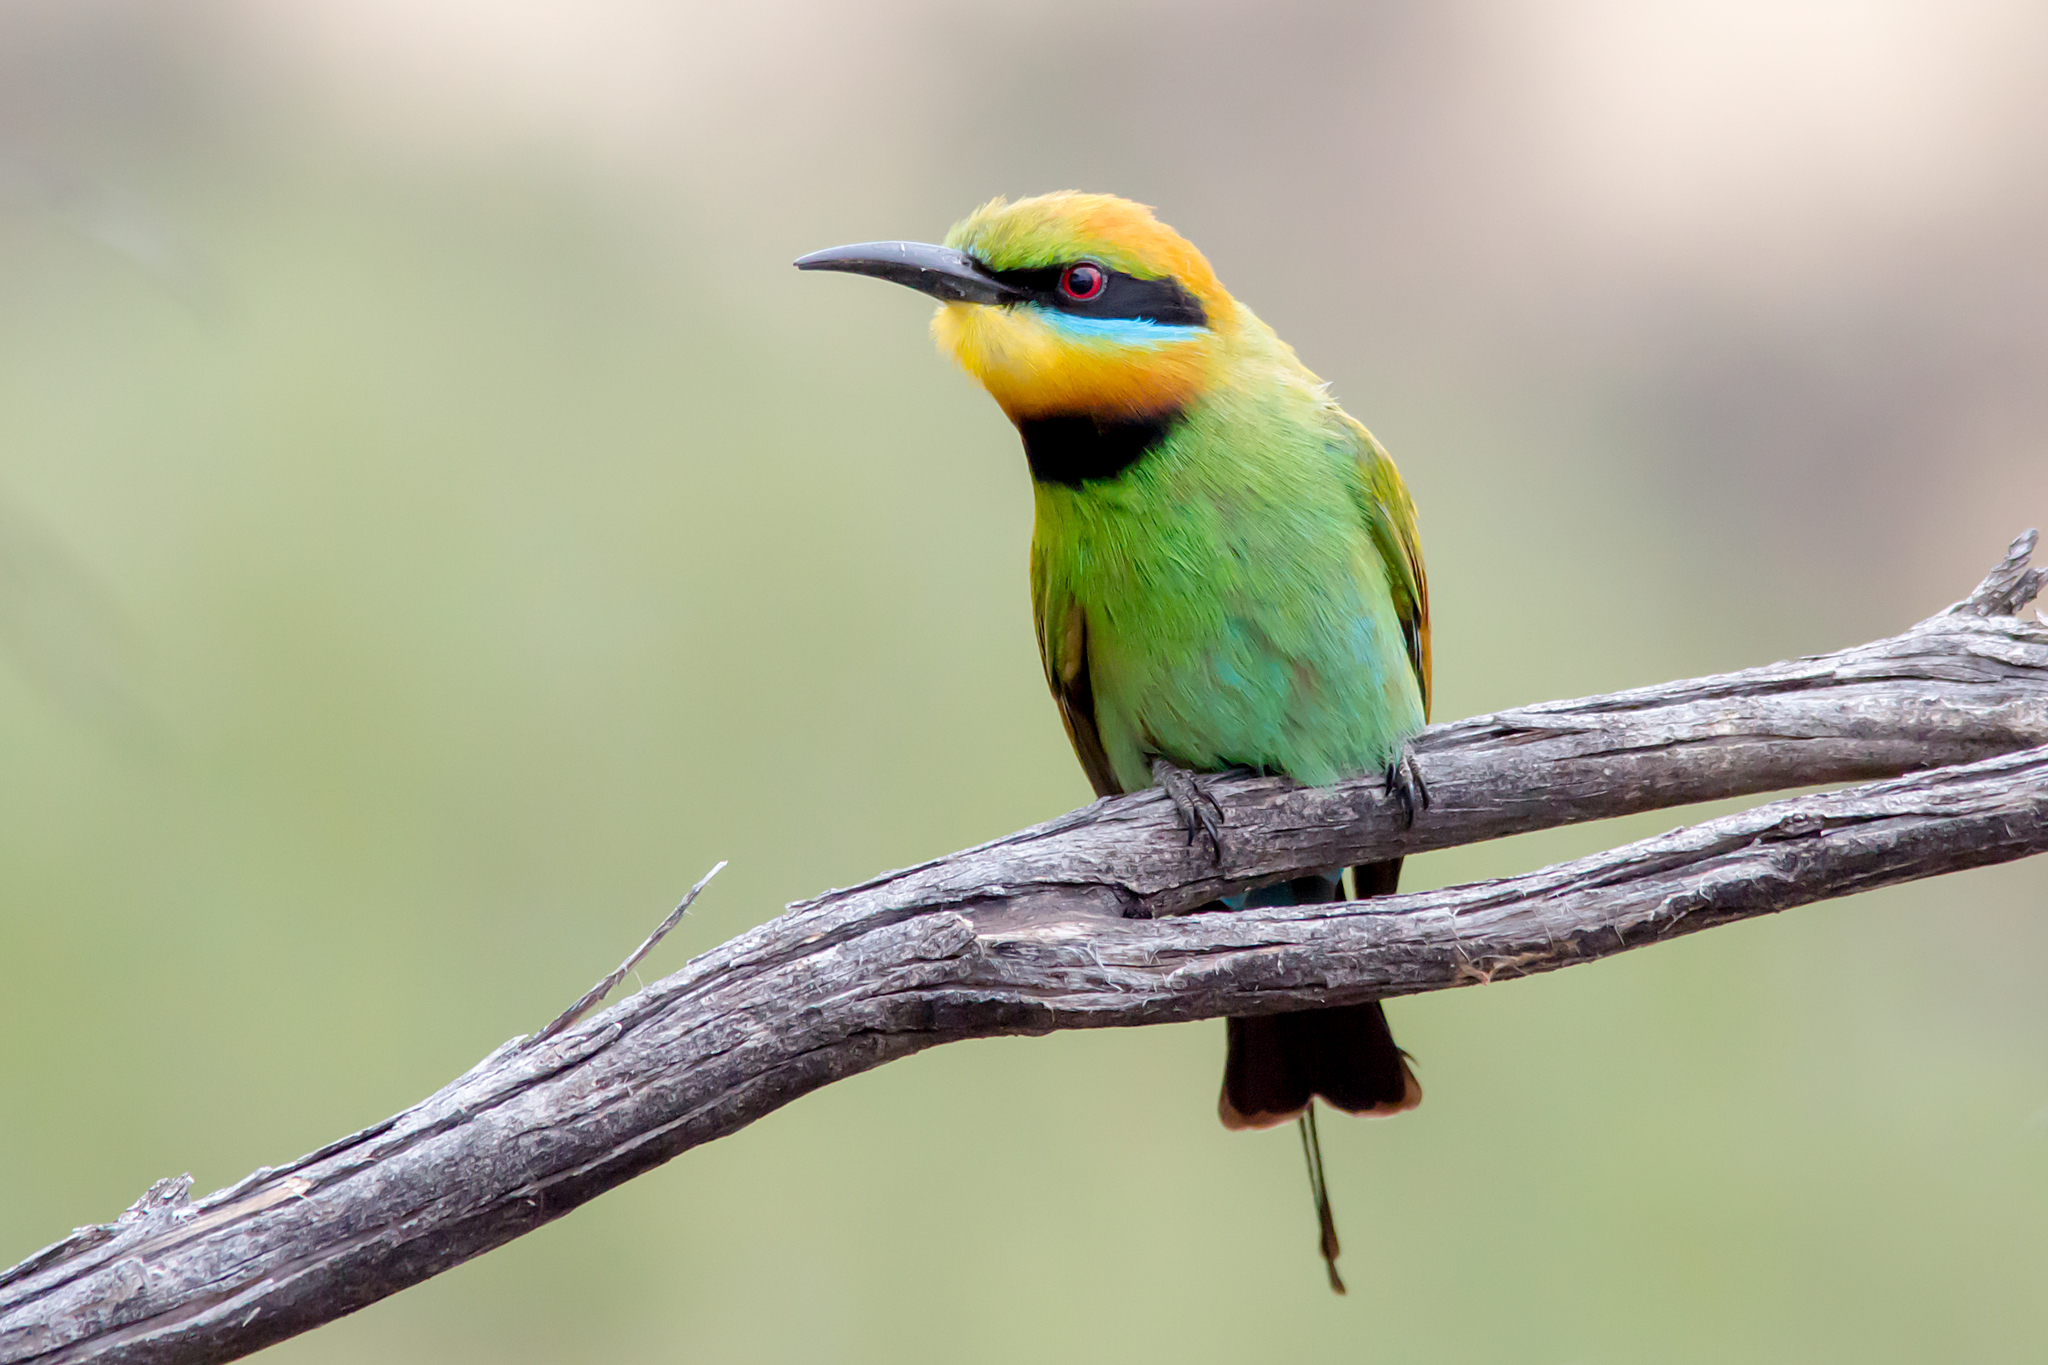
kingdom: Animalia
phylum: Chordata
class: Aves
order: Coraciiformes
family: Meropidae
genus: Merops
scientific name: Merops ornatus
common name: Rainbow bee-eater
